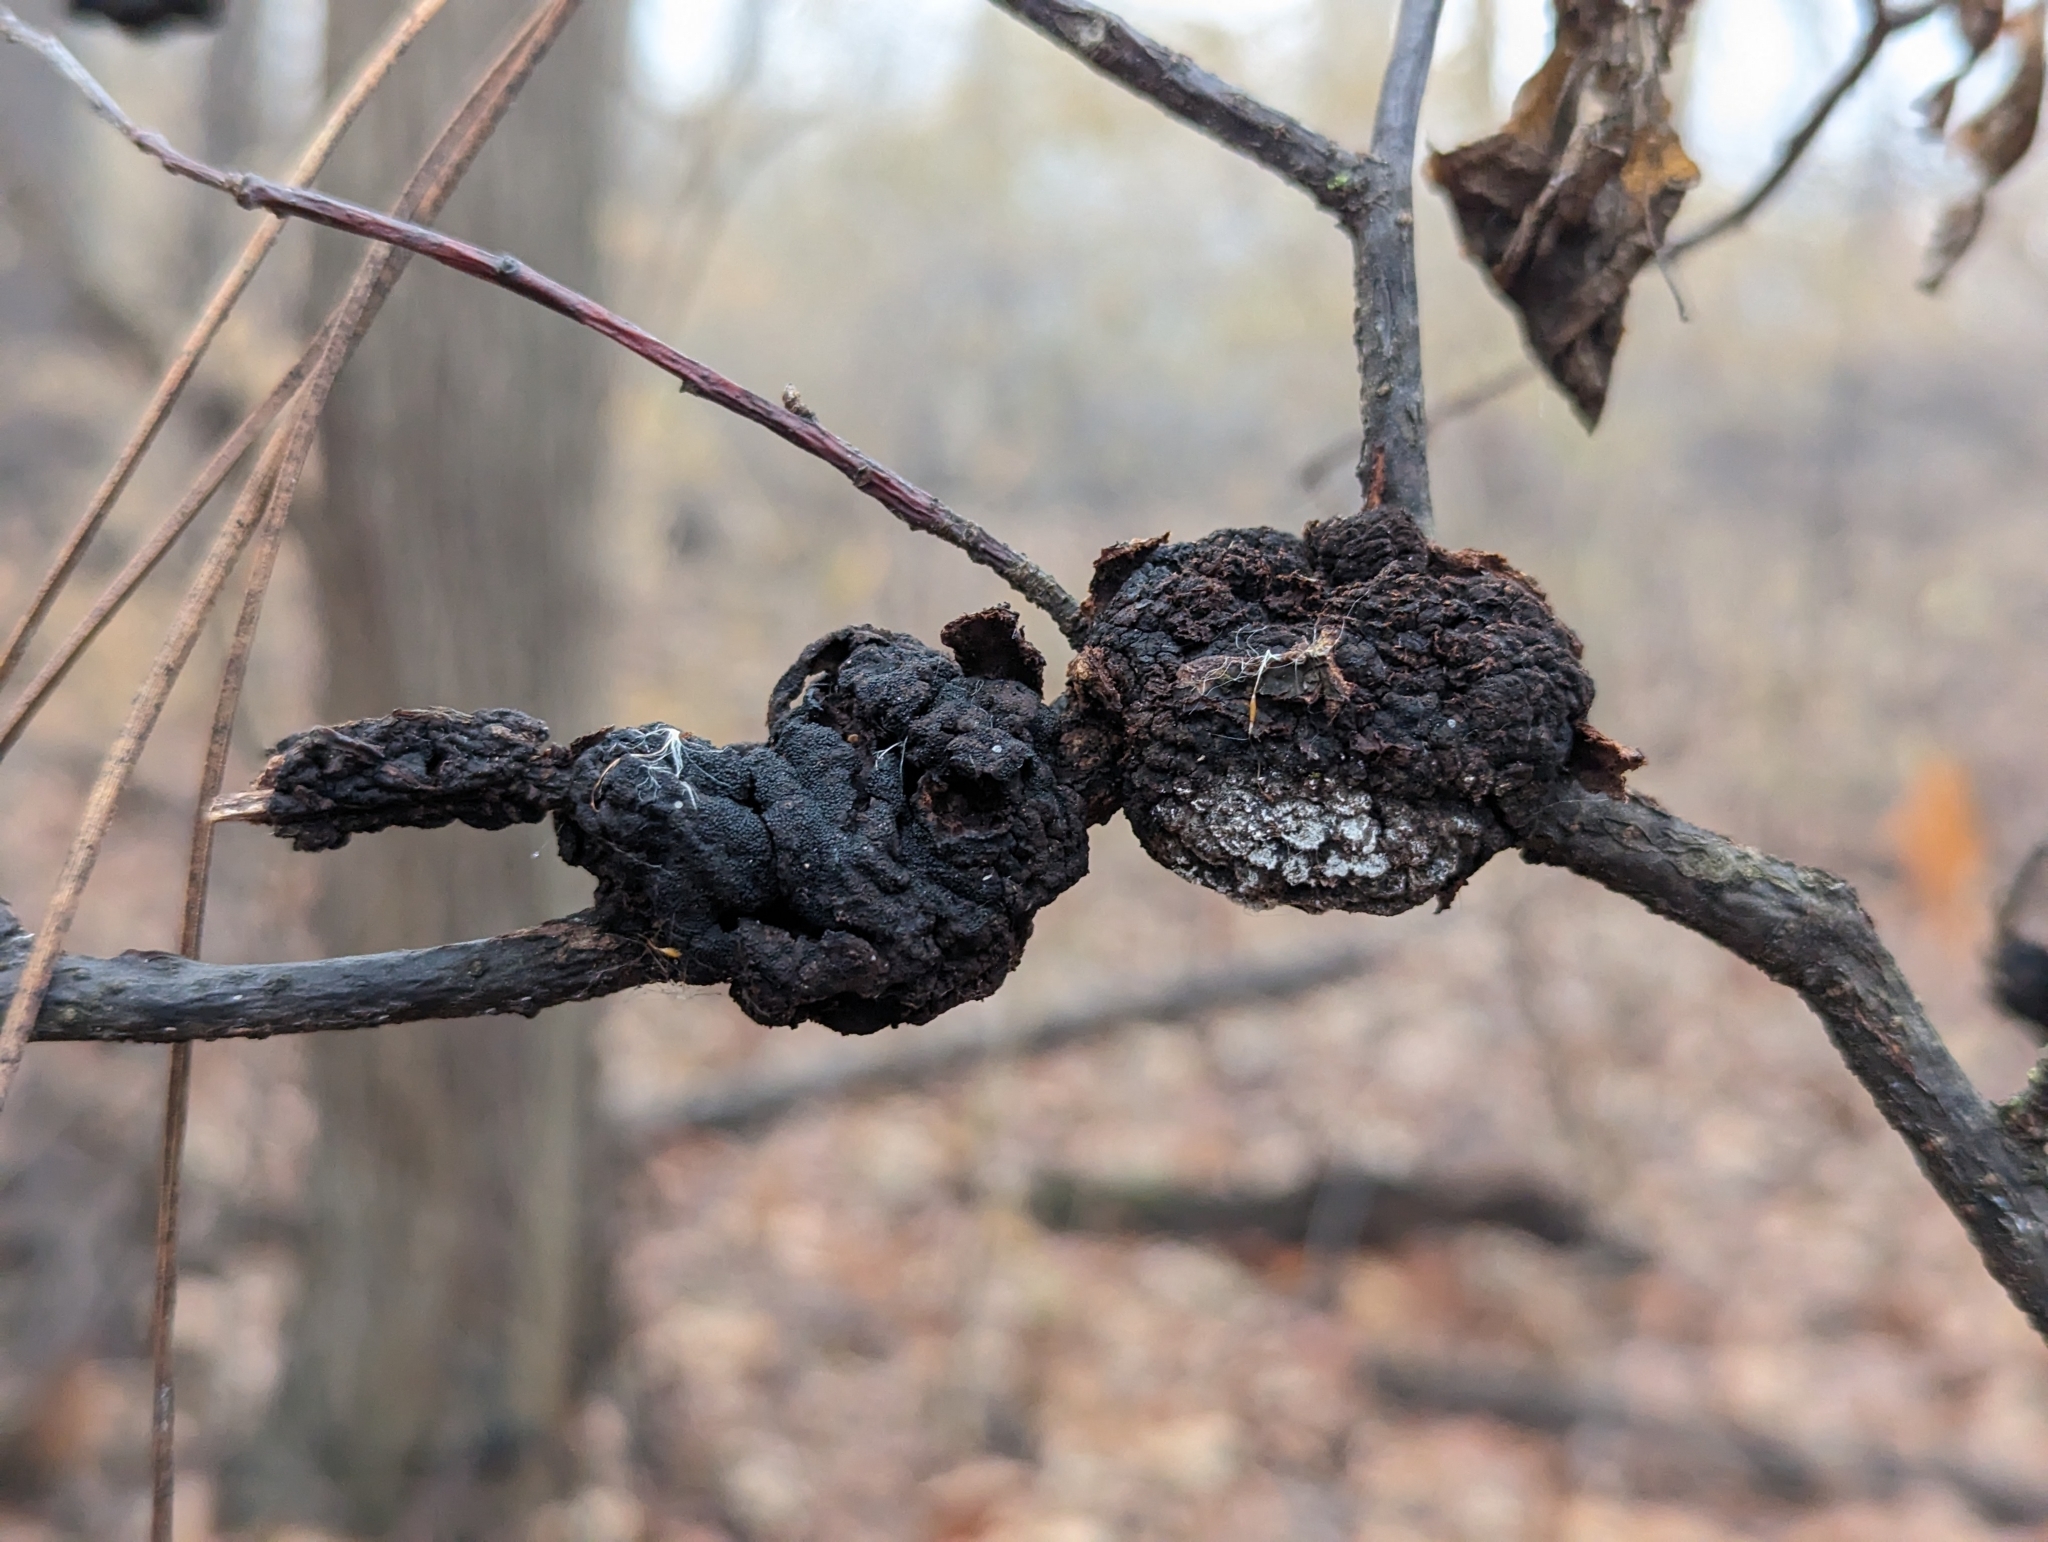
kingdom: Fungi
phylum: Ascomycota
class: Dothideomycetes
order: Venturiales
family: Venturiaceae
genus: Apiosporina
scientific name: Apiosporina morbosa
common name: Black knot
